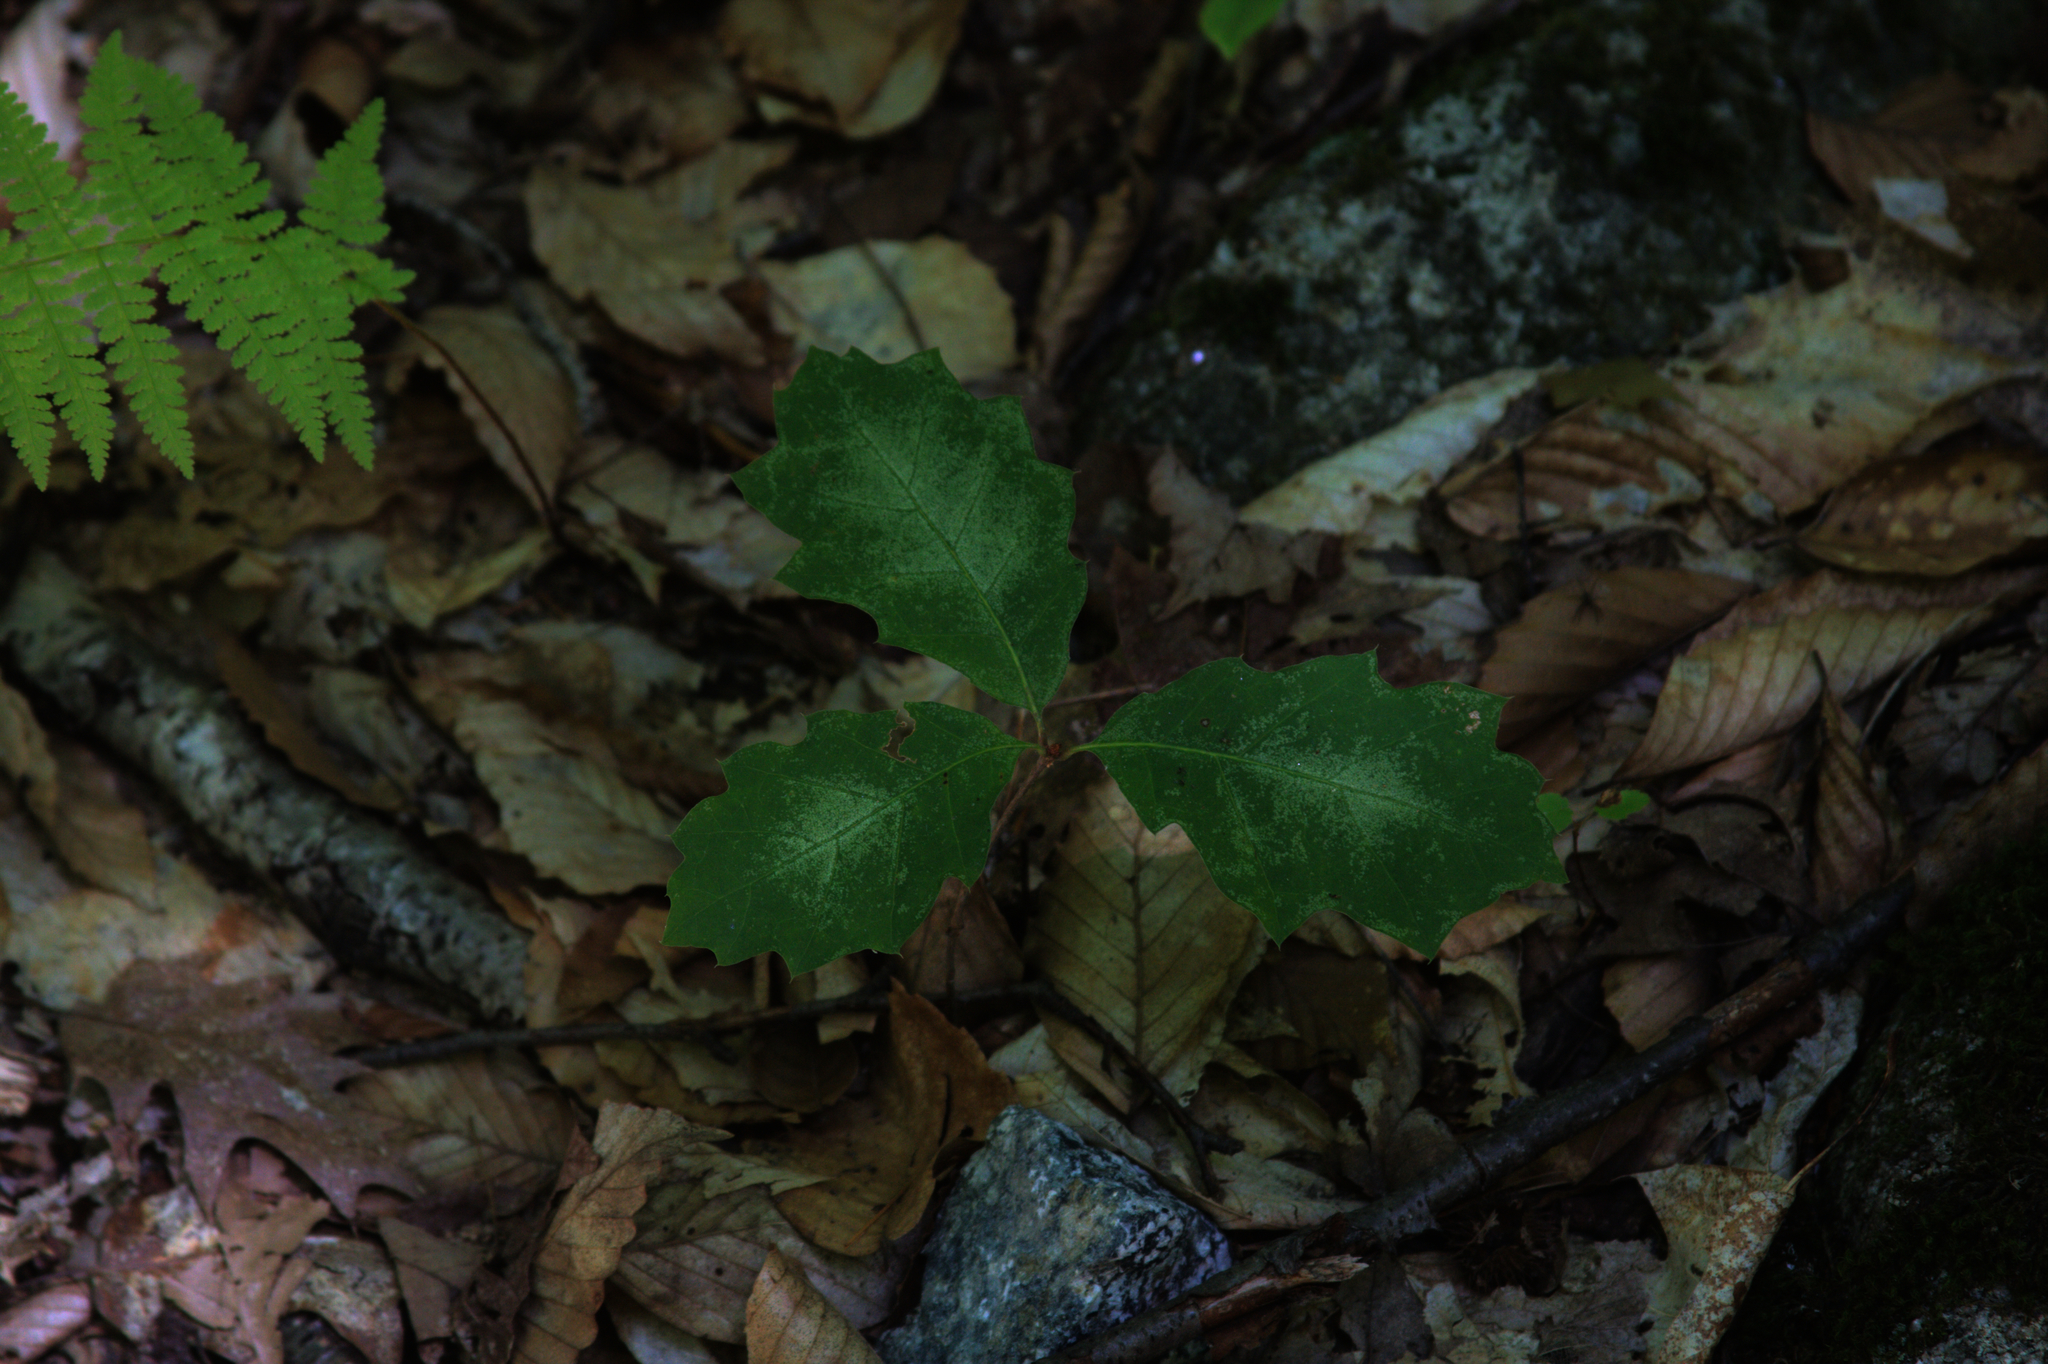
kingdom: Plantae
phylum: Tracheophyta
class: Magnoliopsida
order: Fagales
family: Fagaceae
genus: Quercus
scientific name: Quercus rubra
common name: Red oak
